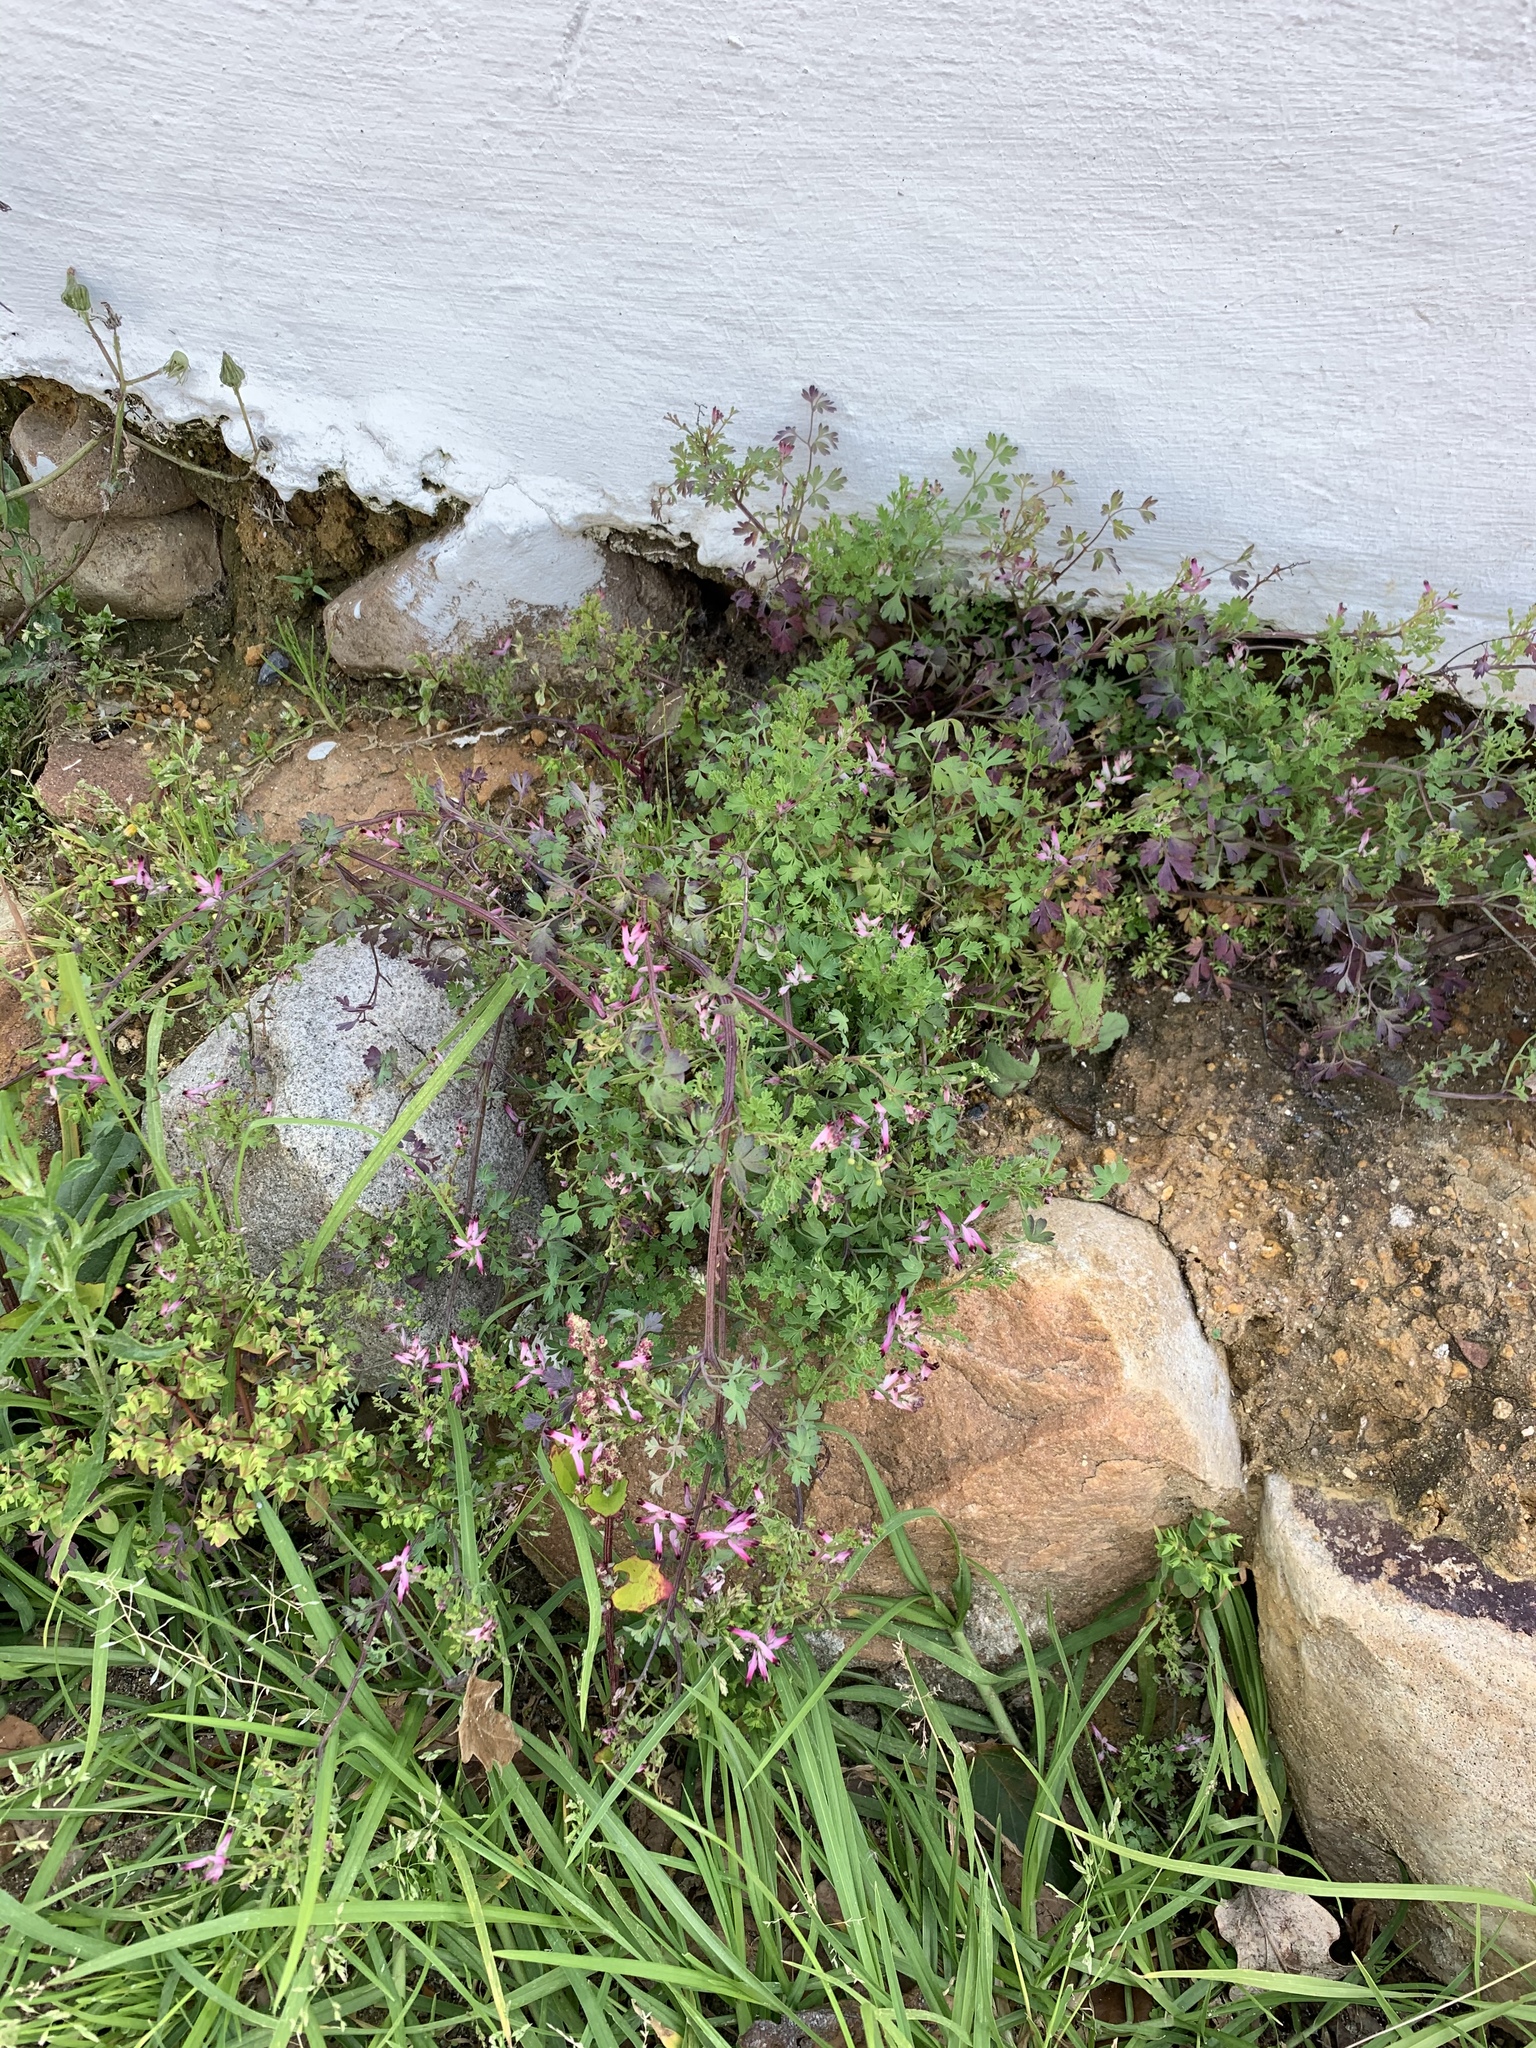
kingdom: Plantae
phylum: Tracheophyta
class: Magnoliopsida
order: Ranunculales
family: Papaveraceae
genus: Fumaria
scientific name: Fumaria muralis
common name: Common ramping-fumitory
